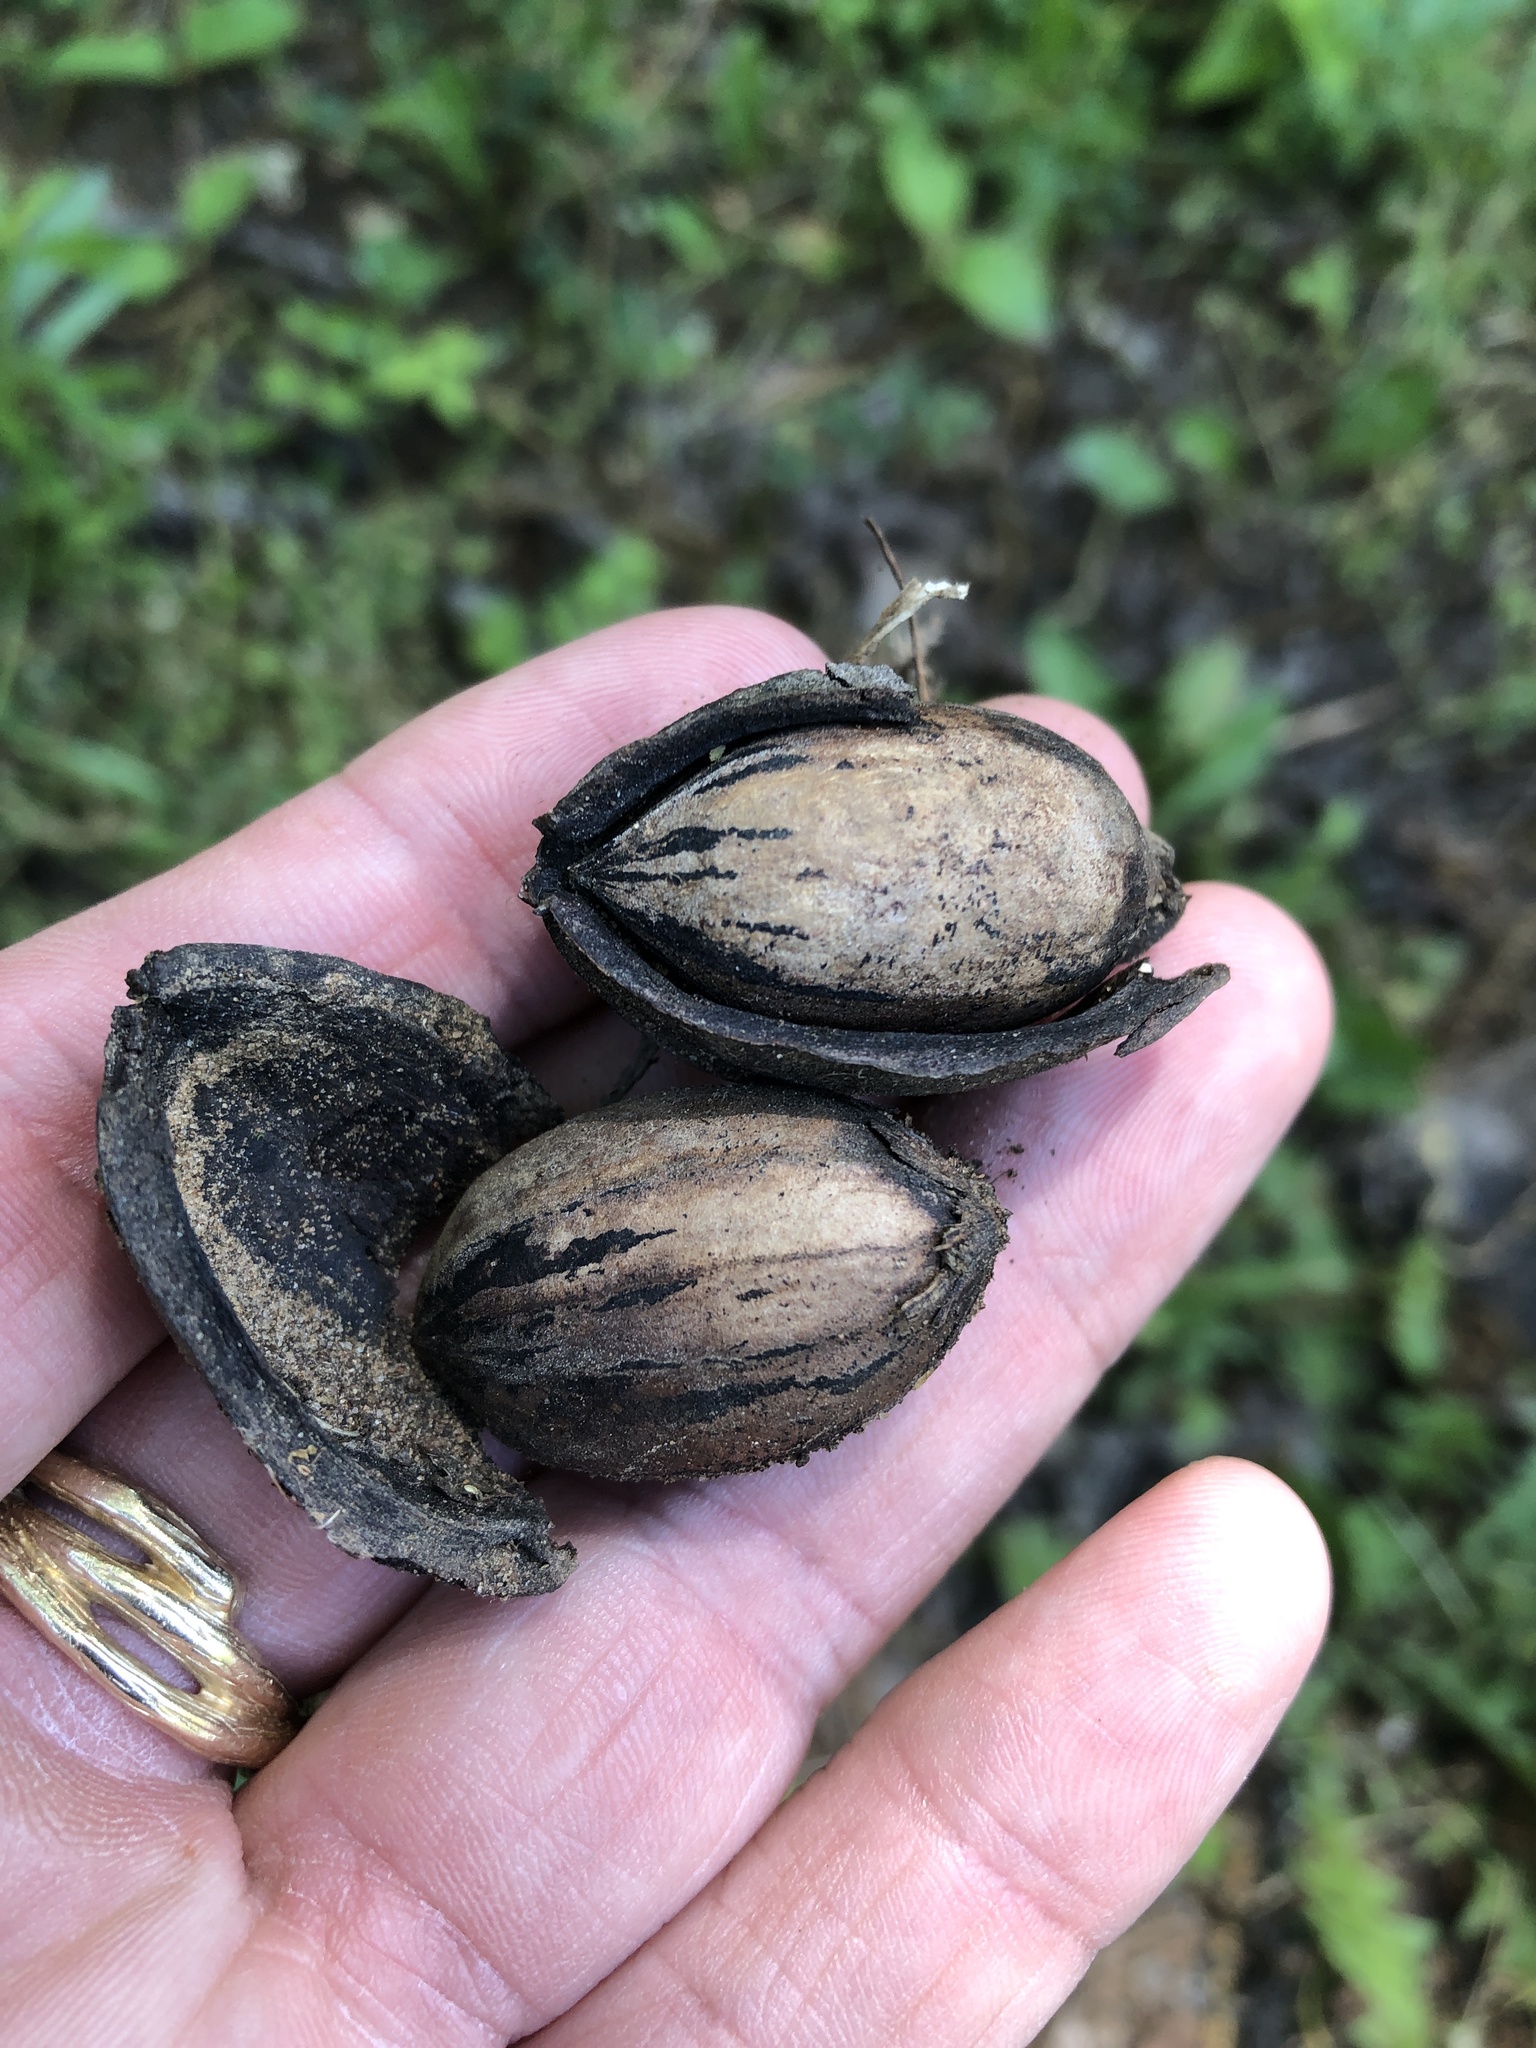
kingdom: Plantae
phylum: Tracheophyta
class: Magnoliopsida
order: Fagales
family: Juglandaceae
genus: Carya
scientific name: Carya illinoinensis
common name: Pecan
